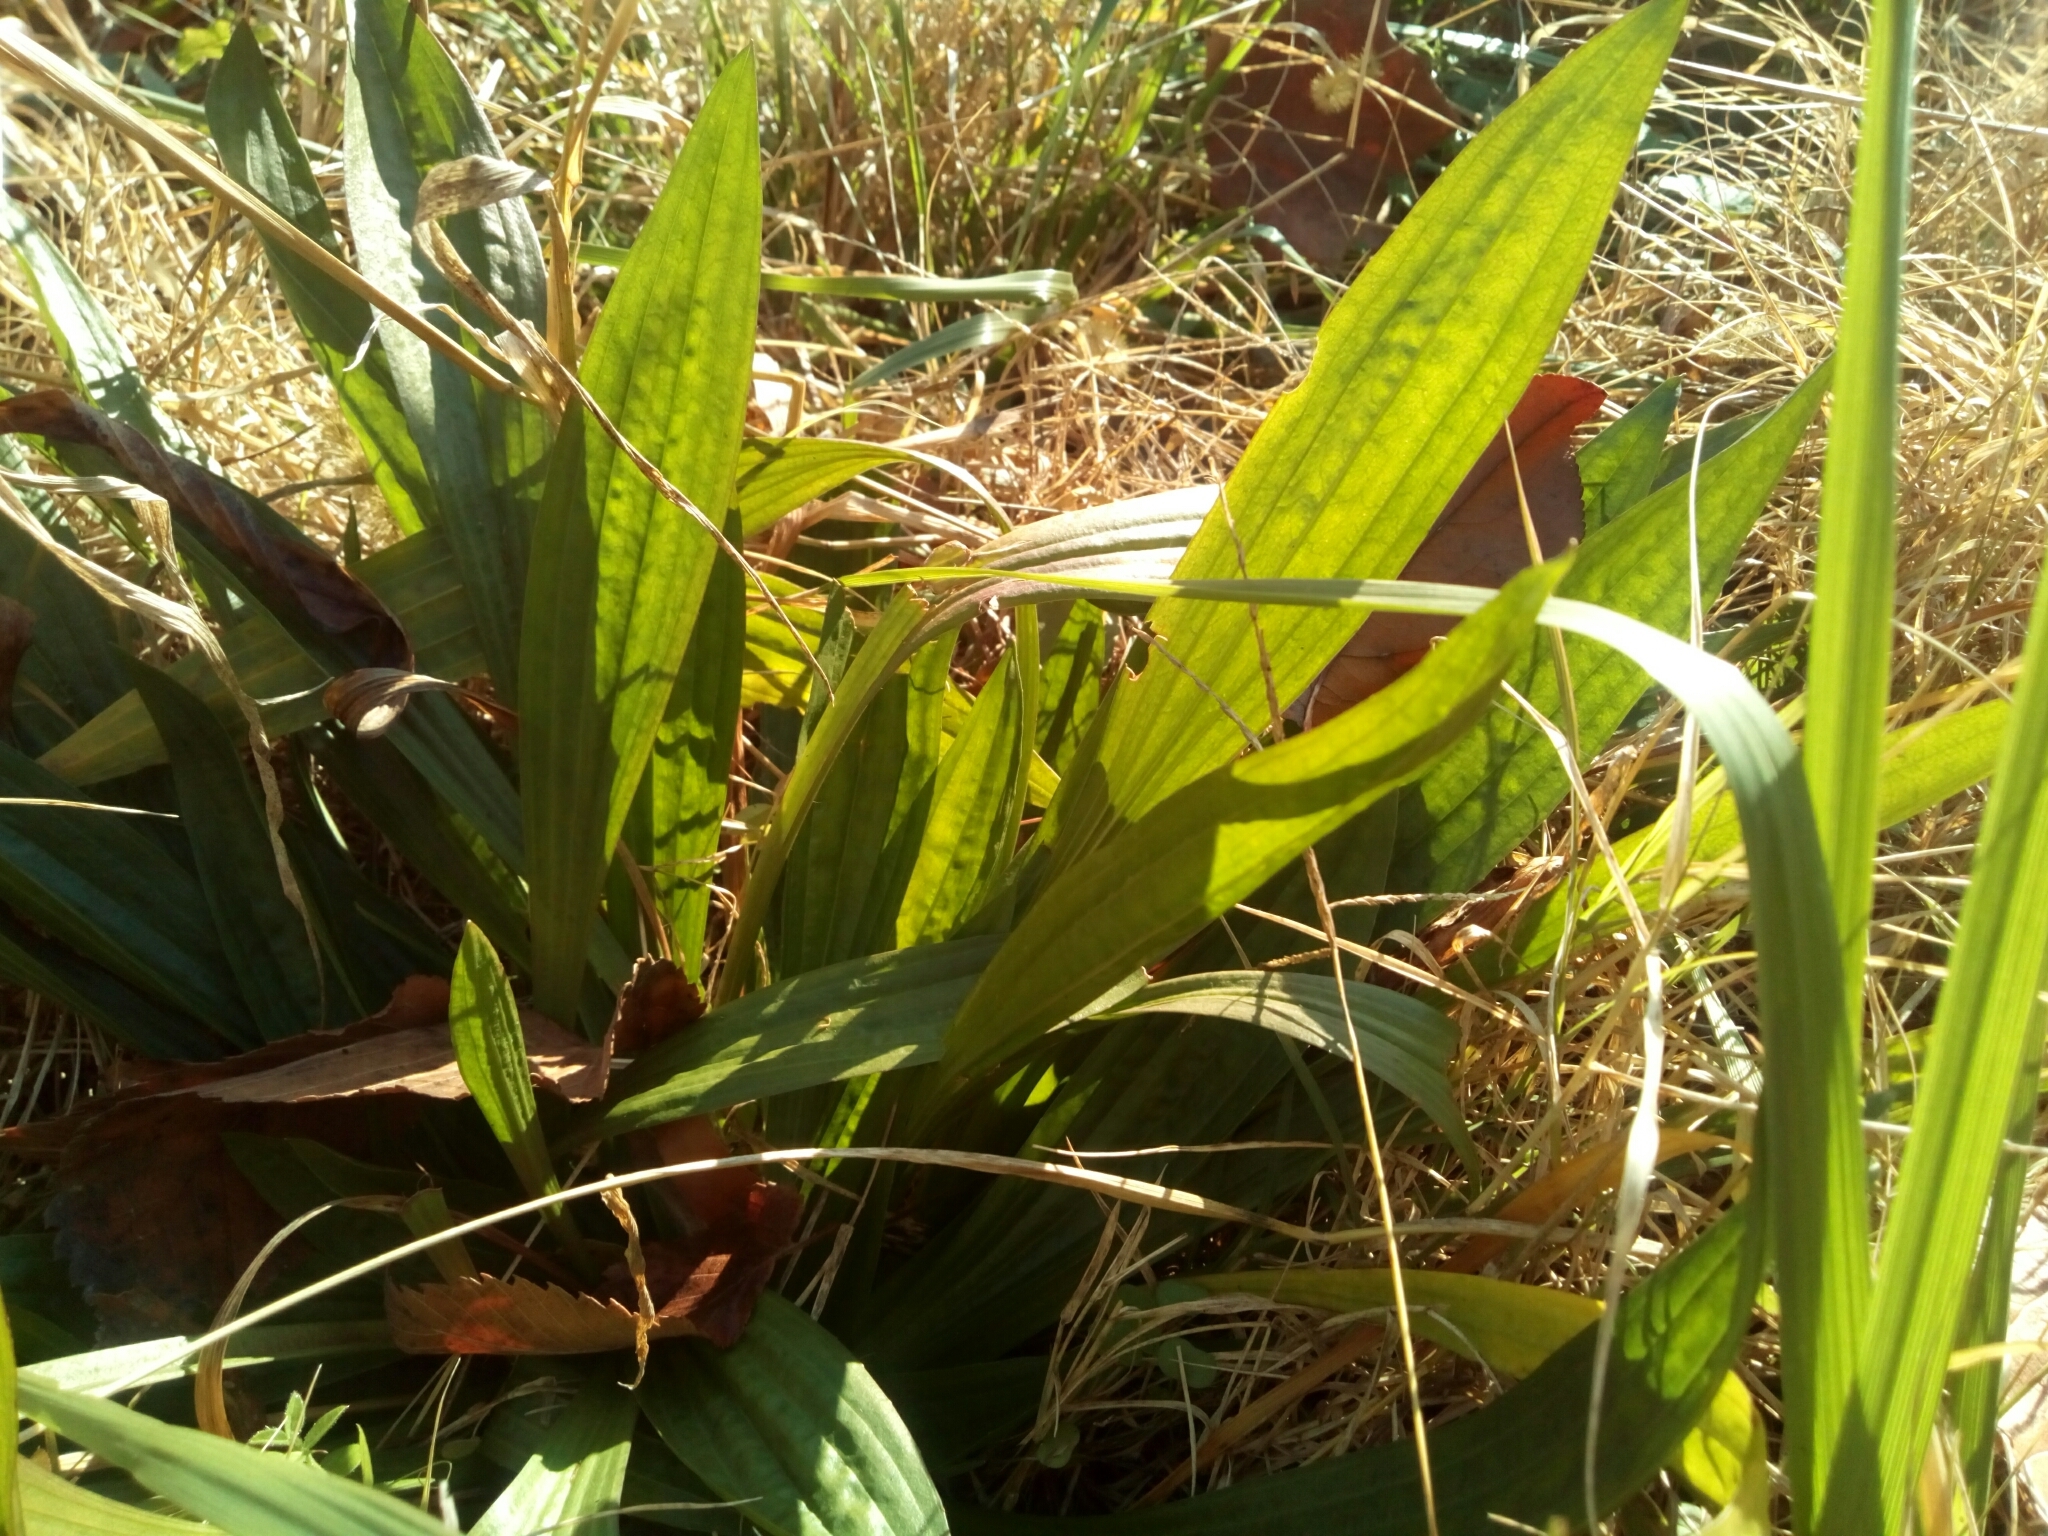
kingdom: Plantae
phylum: Tracheophyta
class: Magnoliopsida
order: Lamiales
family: Plantaginaceae
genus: Plantago
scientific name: Plantago lanceolata
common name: Ribwort plantain
